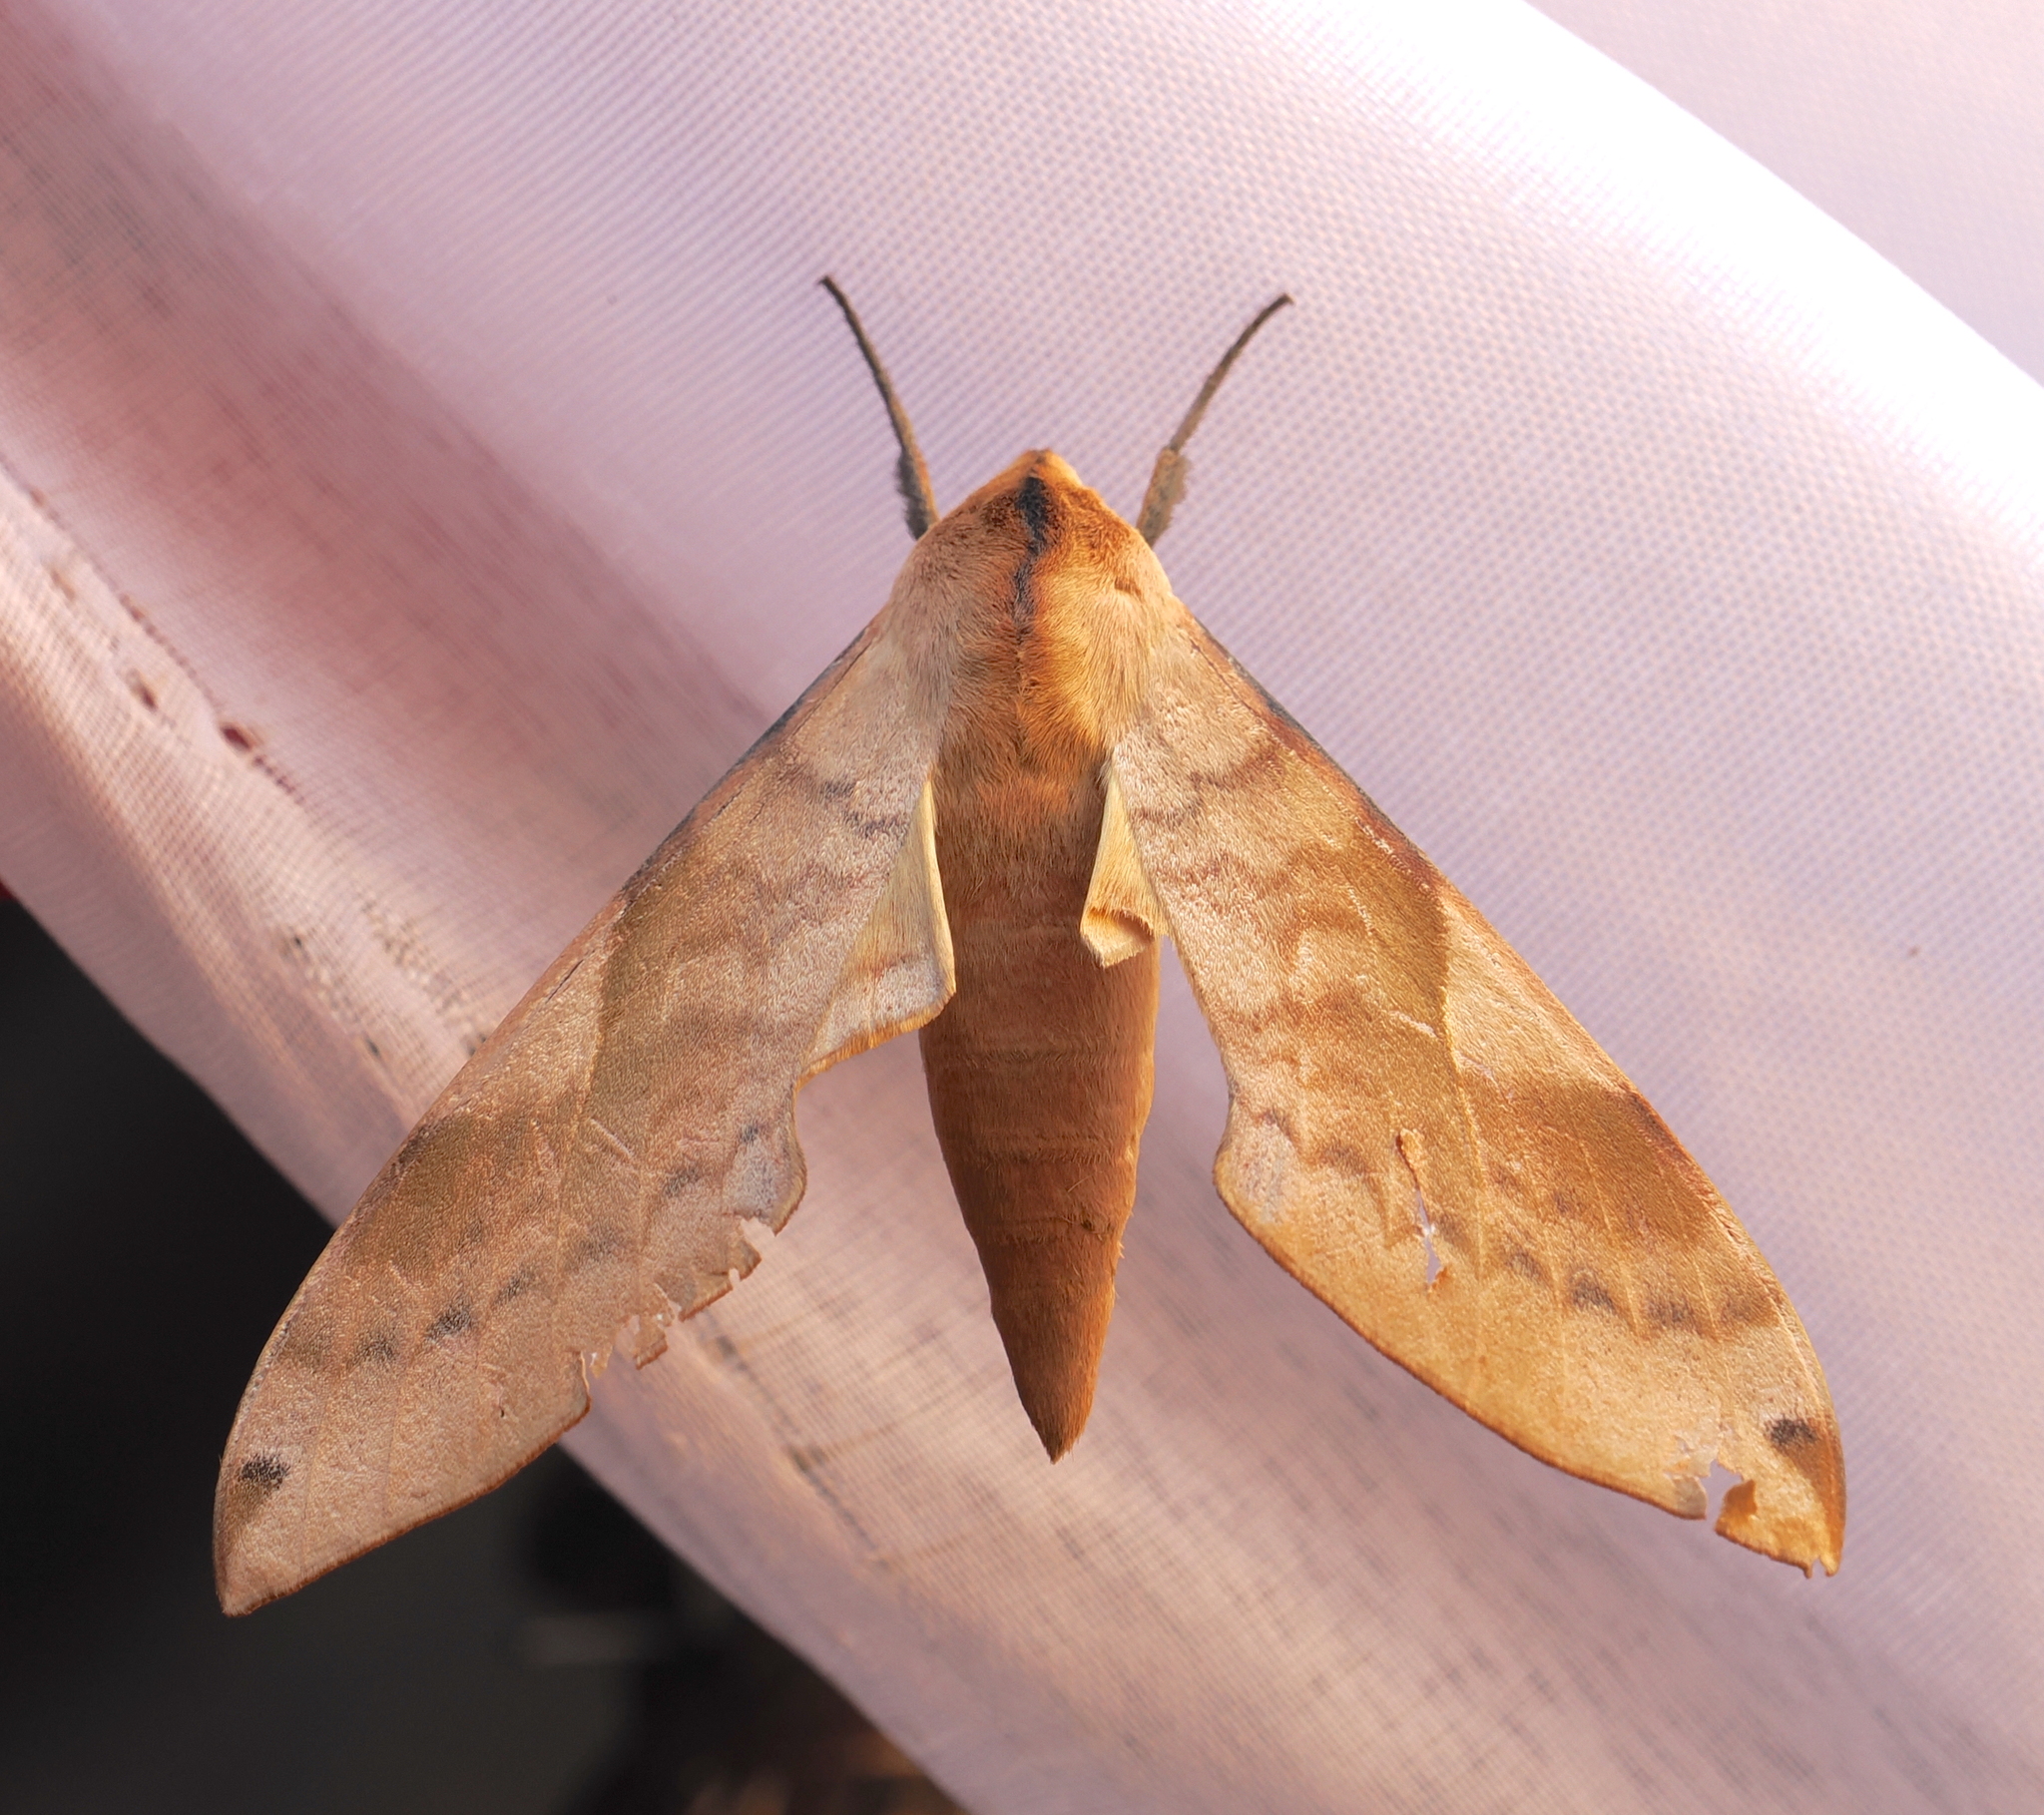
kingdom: Animalia
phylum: Arthropoda
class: Insecta
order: Lepidoptera
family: Sphingidae
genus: Clanis
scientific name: Clanis bilineata
